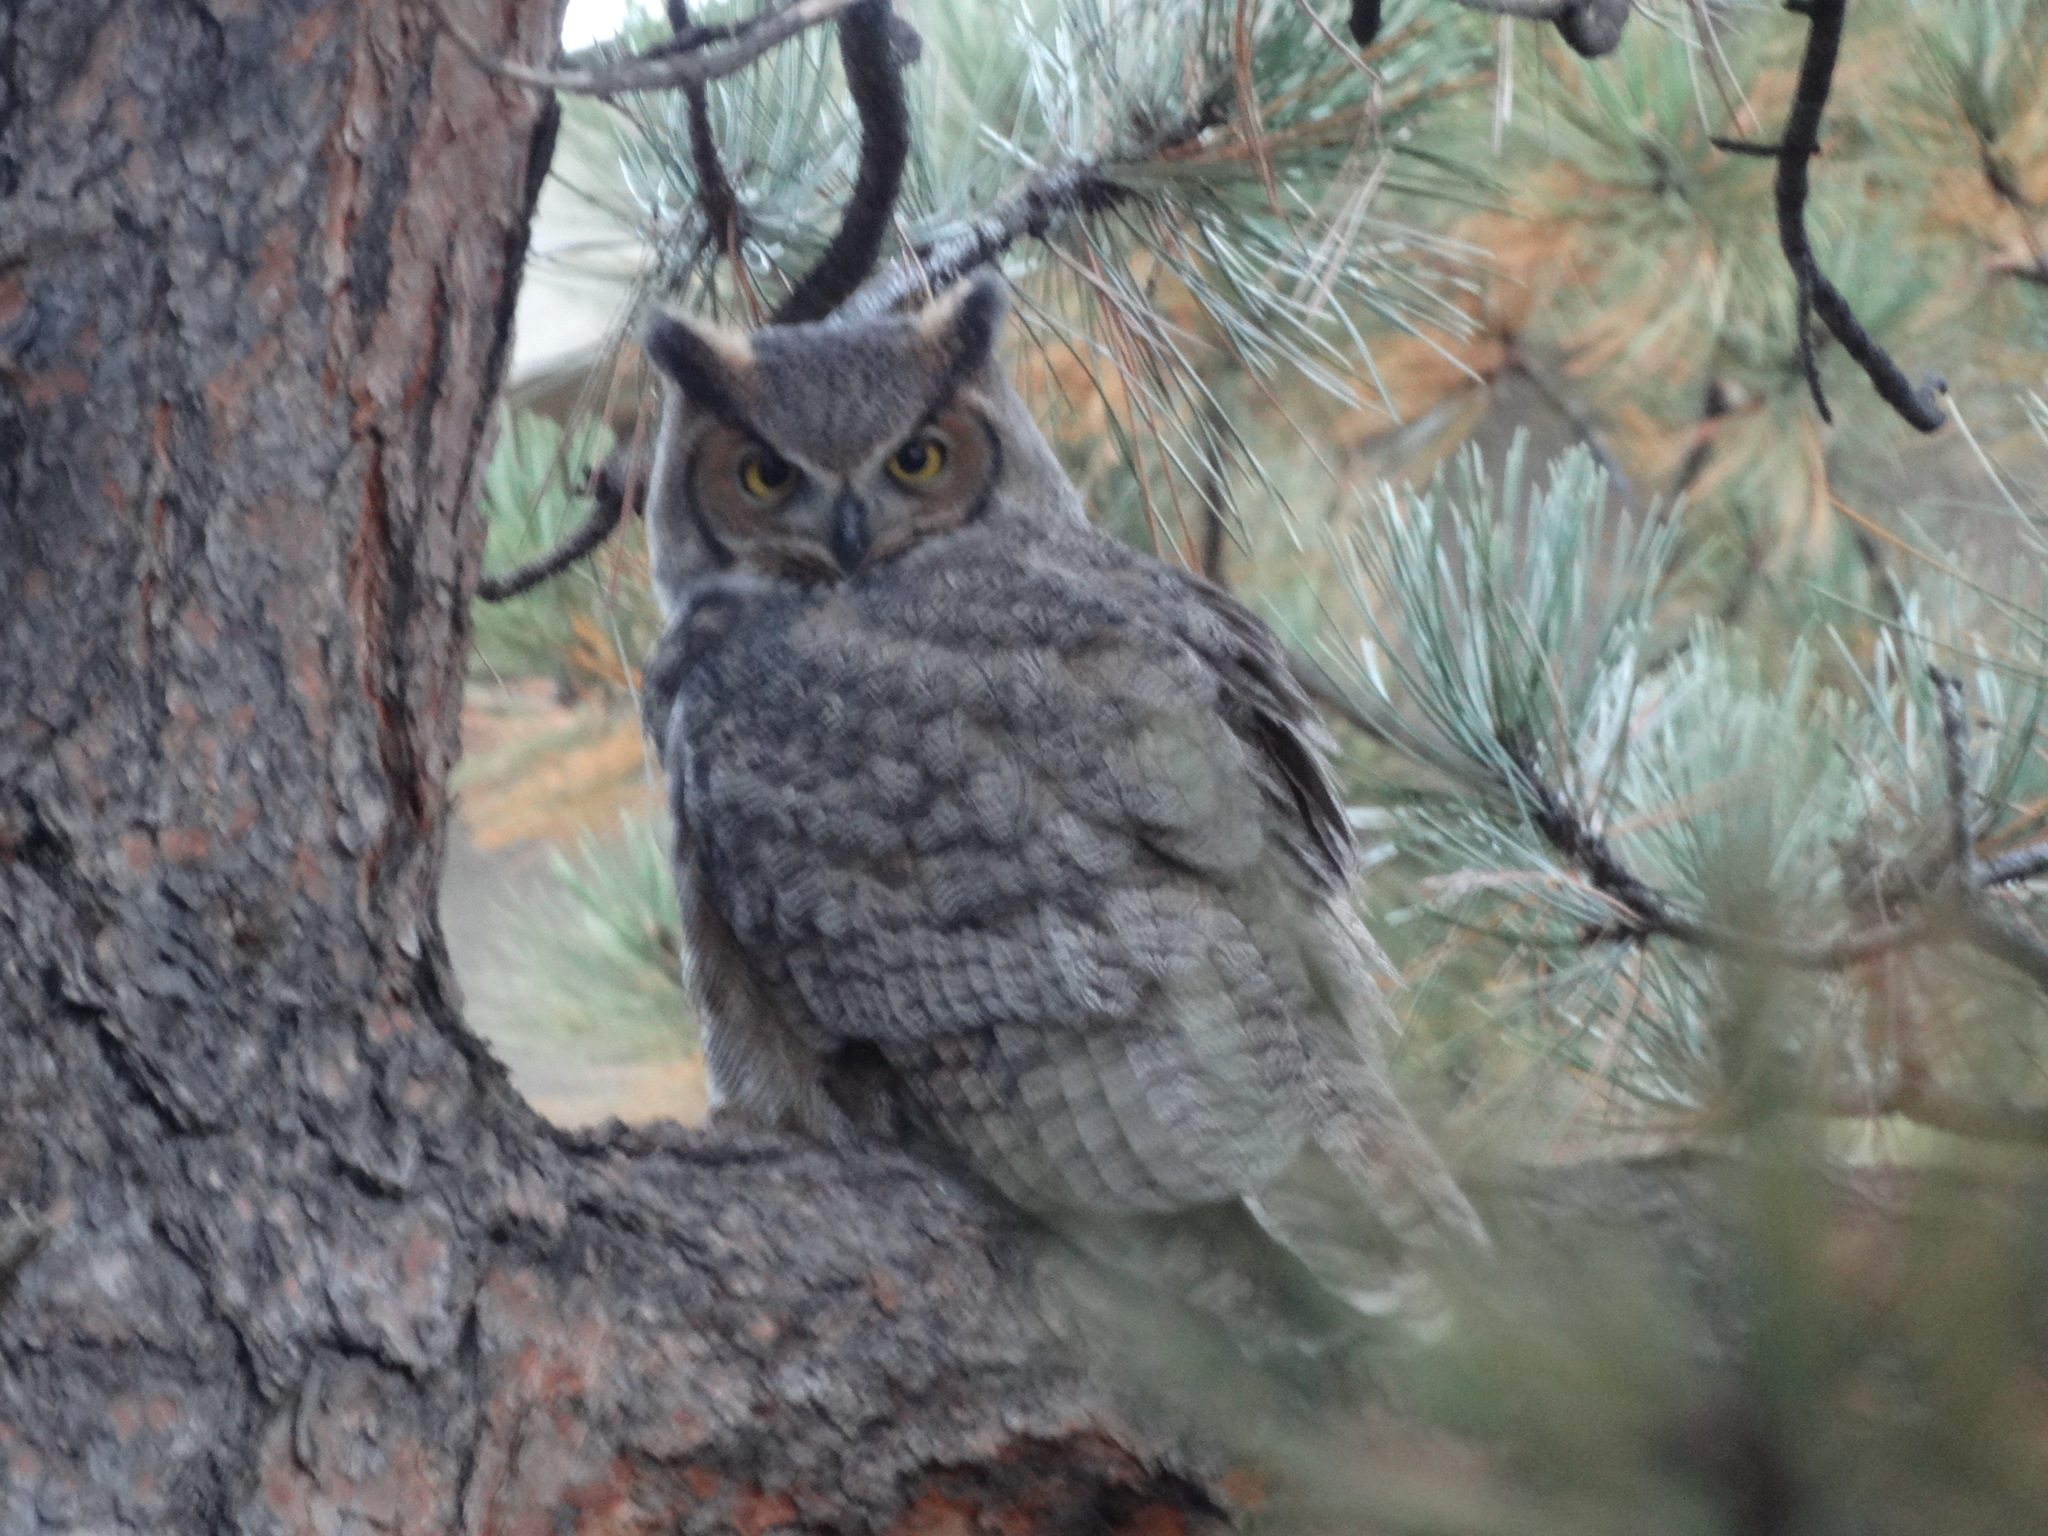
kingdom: Animalia
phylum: Chordata
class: Aves
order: Strigiformes
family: Strigidae
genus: Bubo
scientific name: Bubo virginianus
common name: Great horned owl
